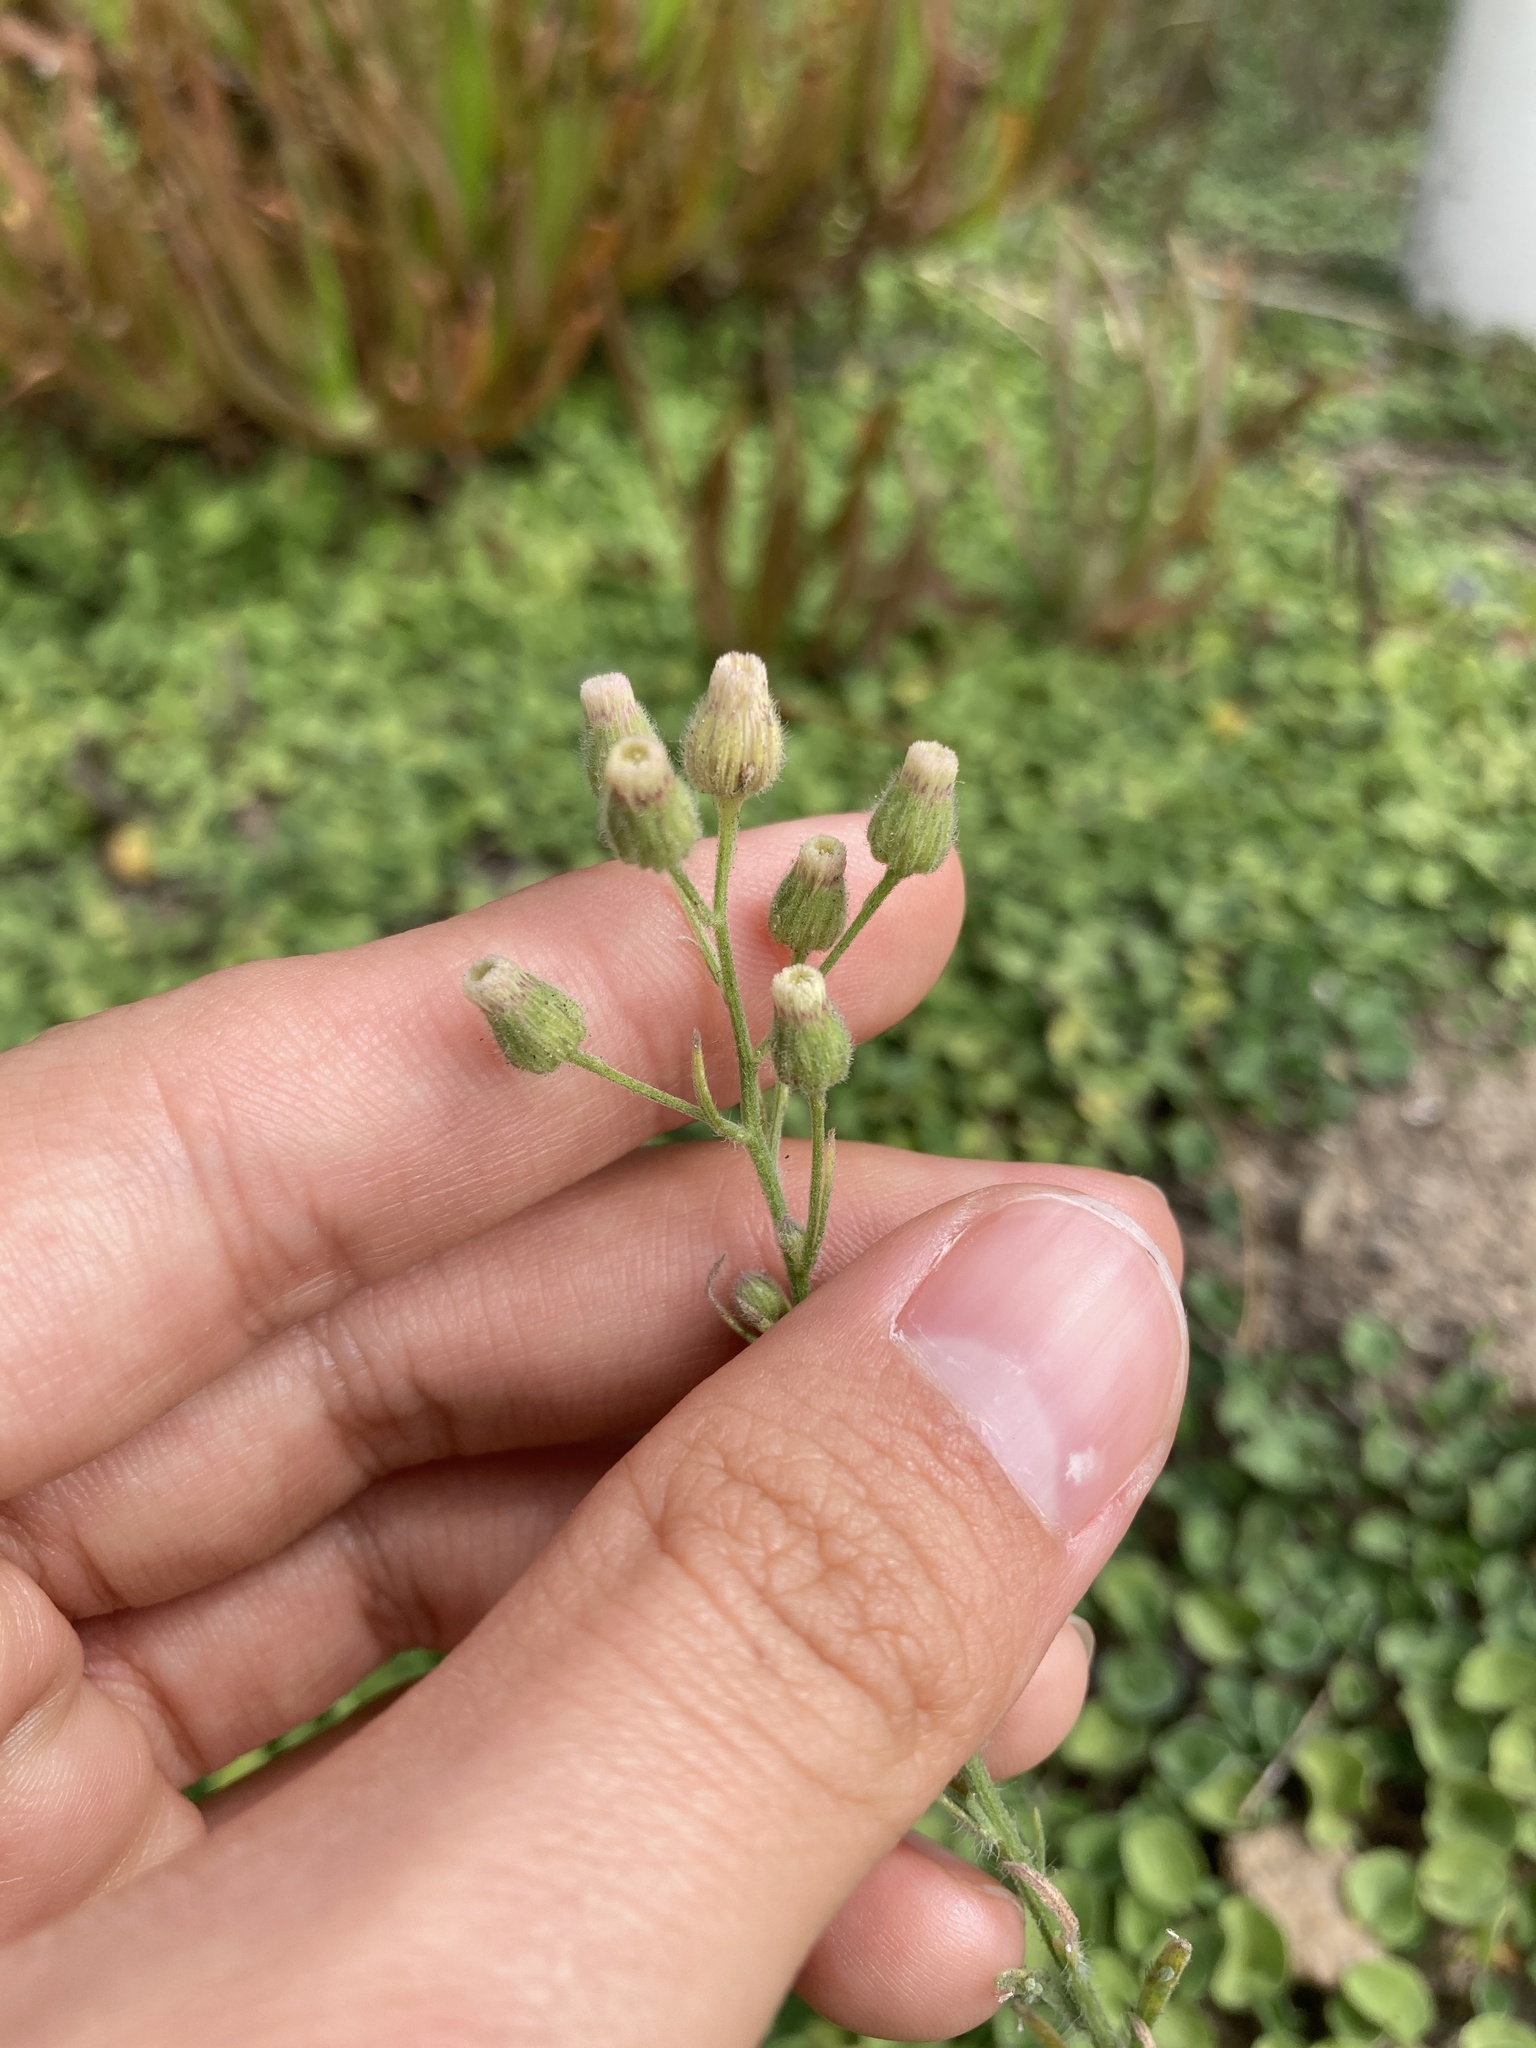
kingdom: Plantae
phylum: Tracheophyta
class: Magnoliopsida
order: Asterales
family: Asteraceae
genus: Erigeron
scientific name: Erigeron bonariensis
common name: Argentine fleabane
